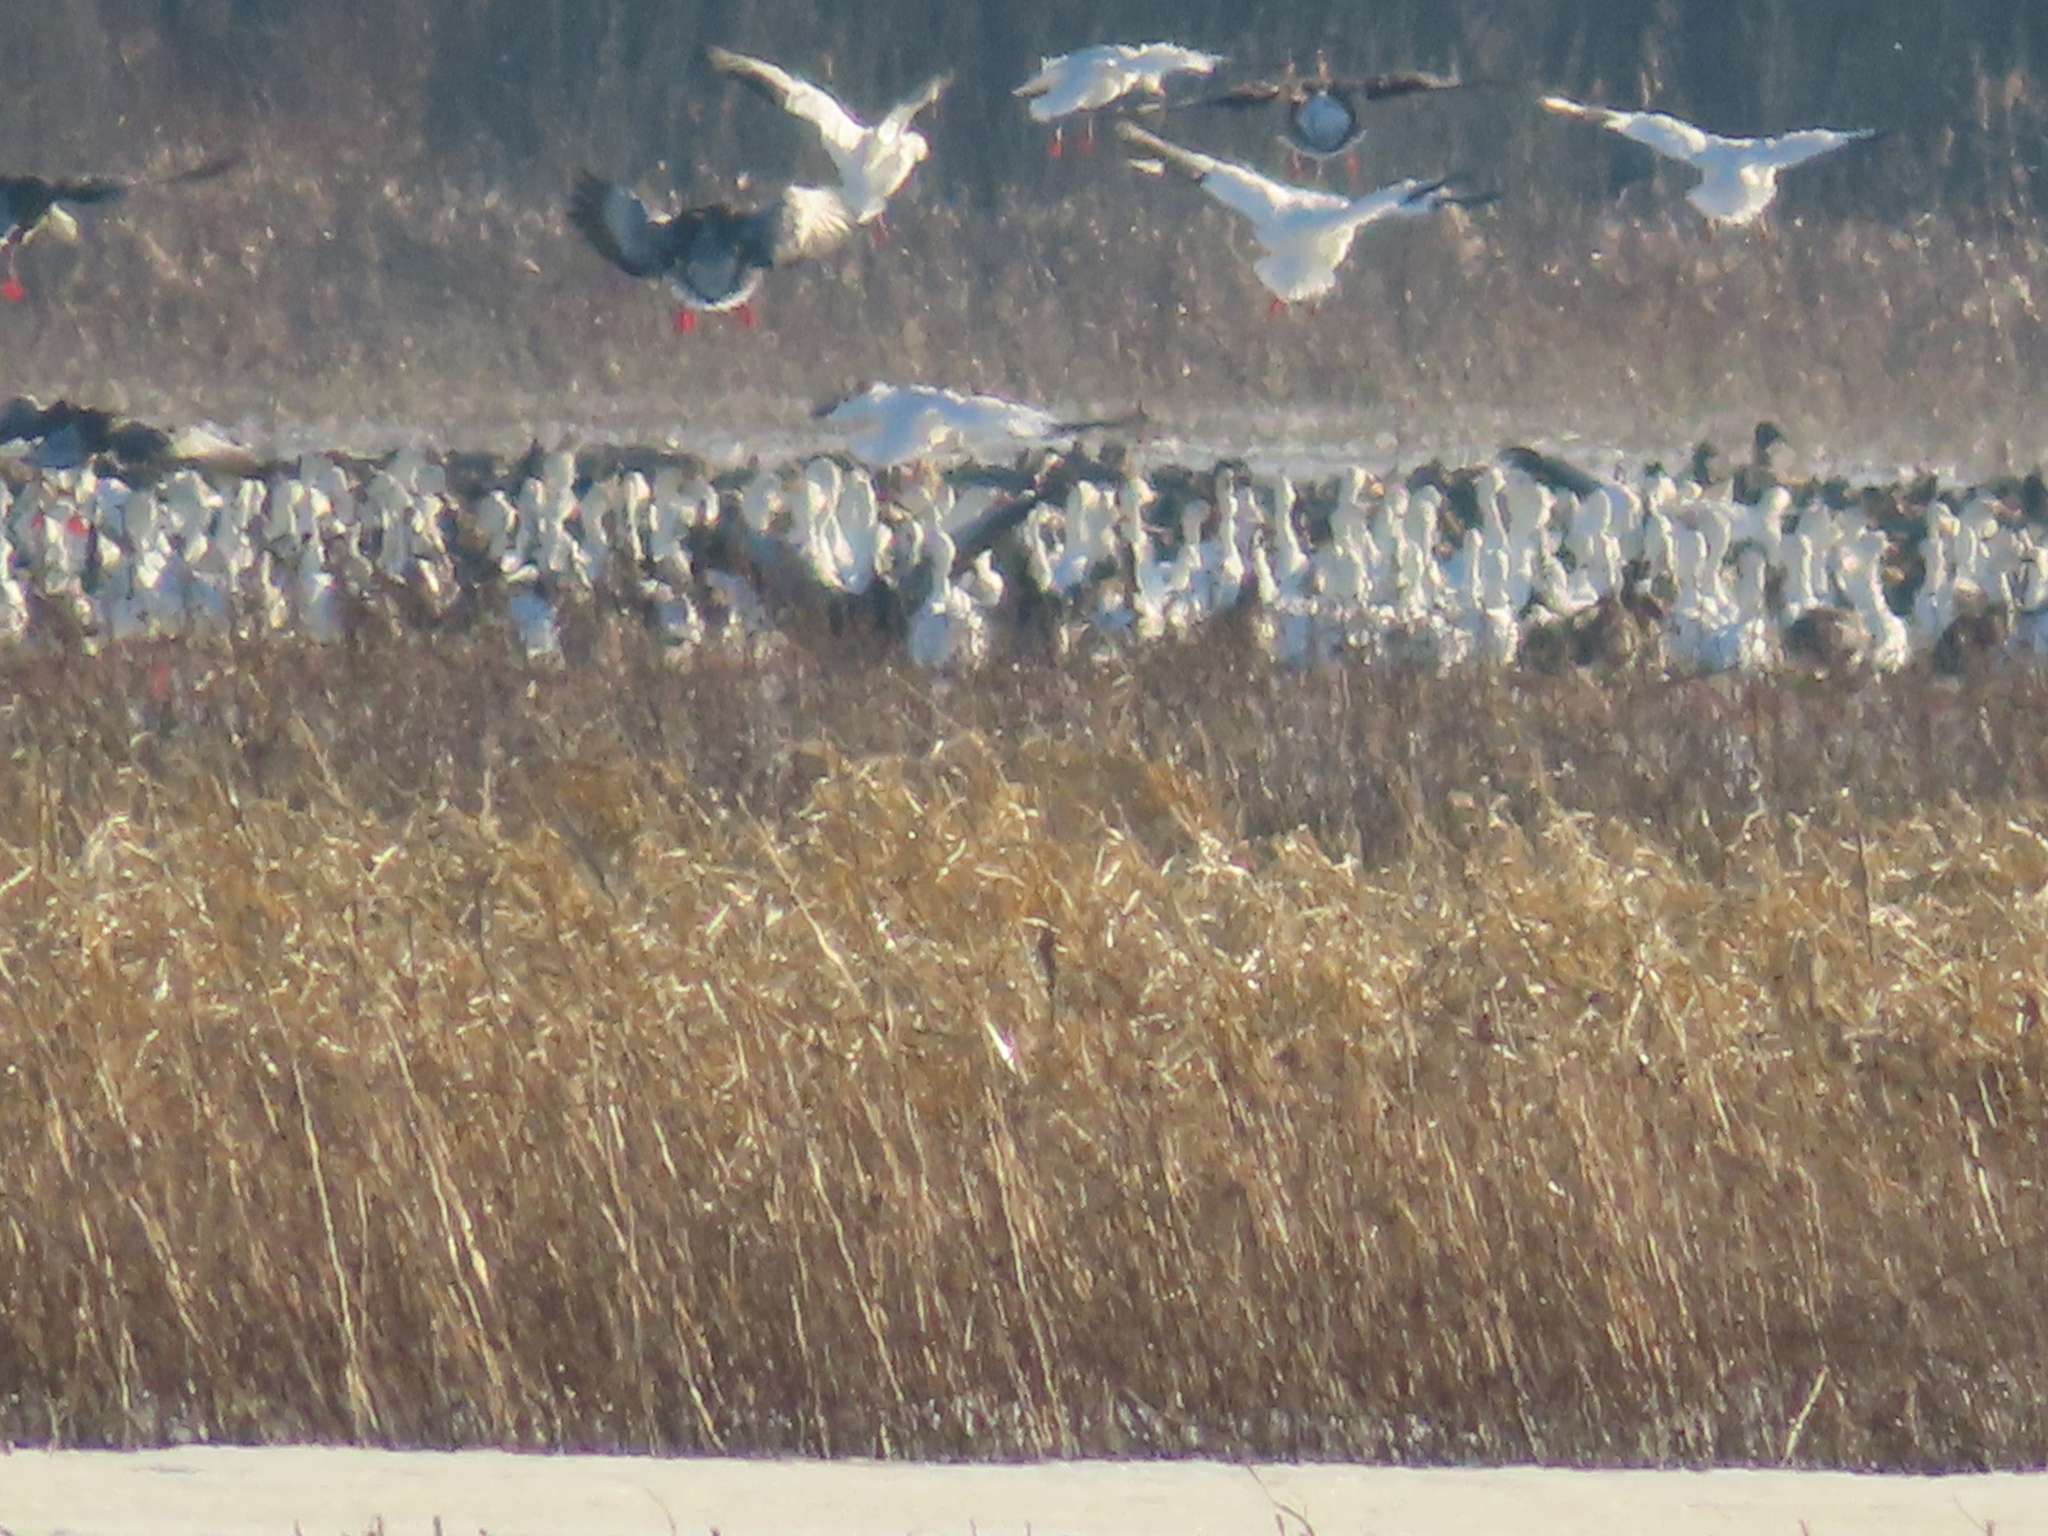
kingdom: Animalia
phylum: Chordata
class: Aves
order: Anseriformes
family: Anatidae
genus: Anser
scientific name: Anser caerulescens
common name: Snow goose
